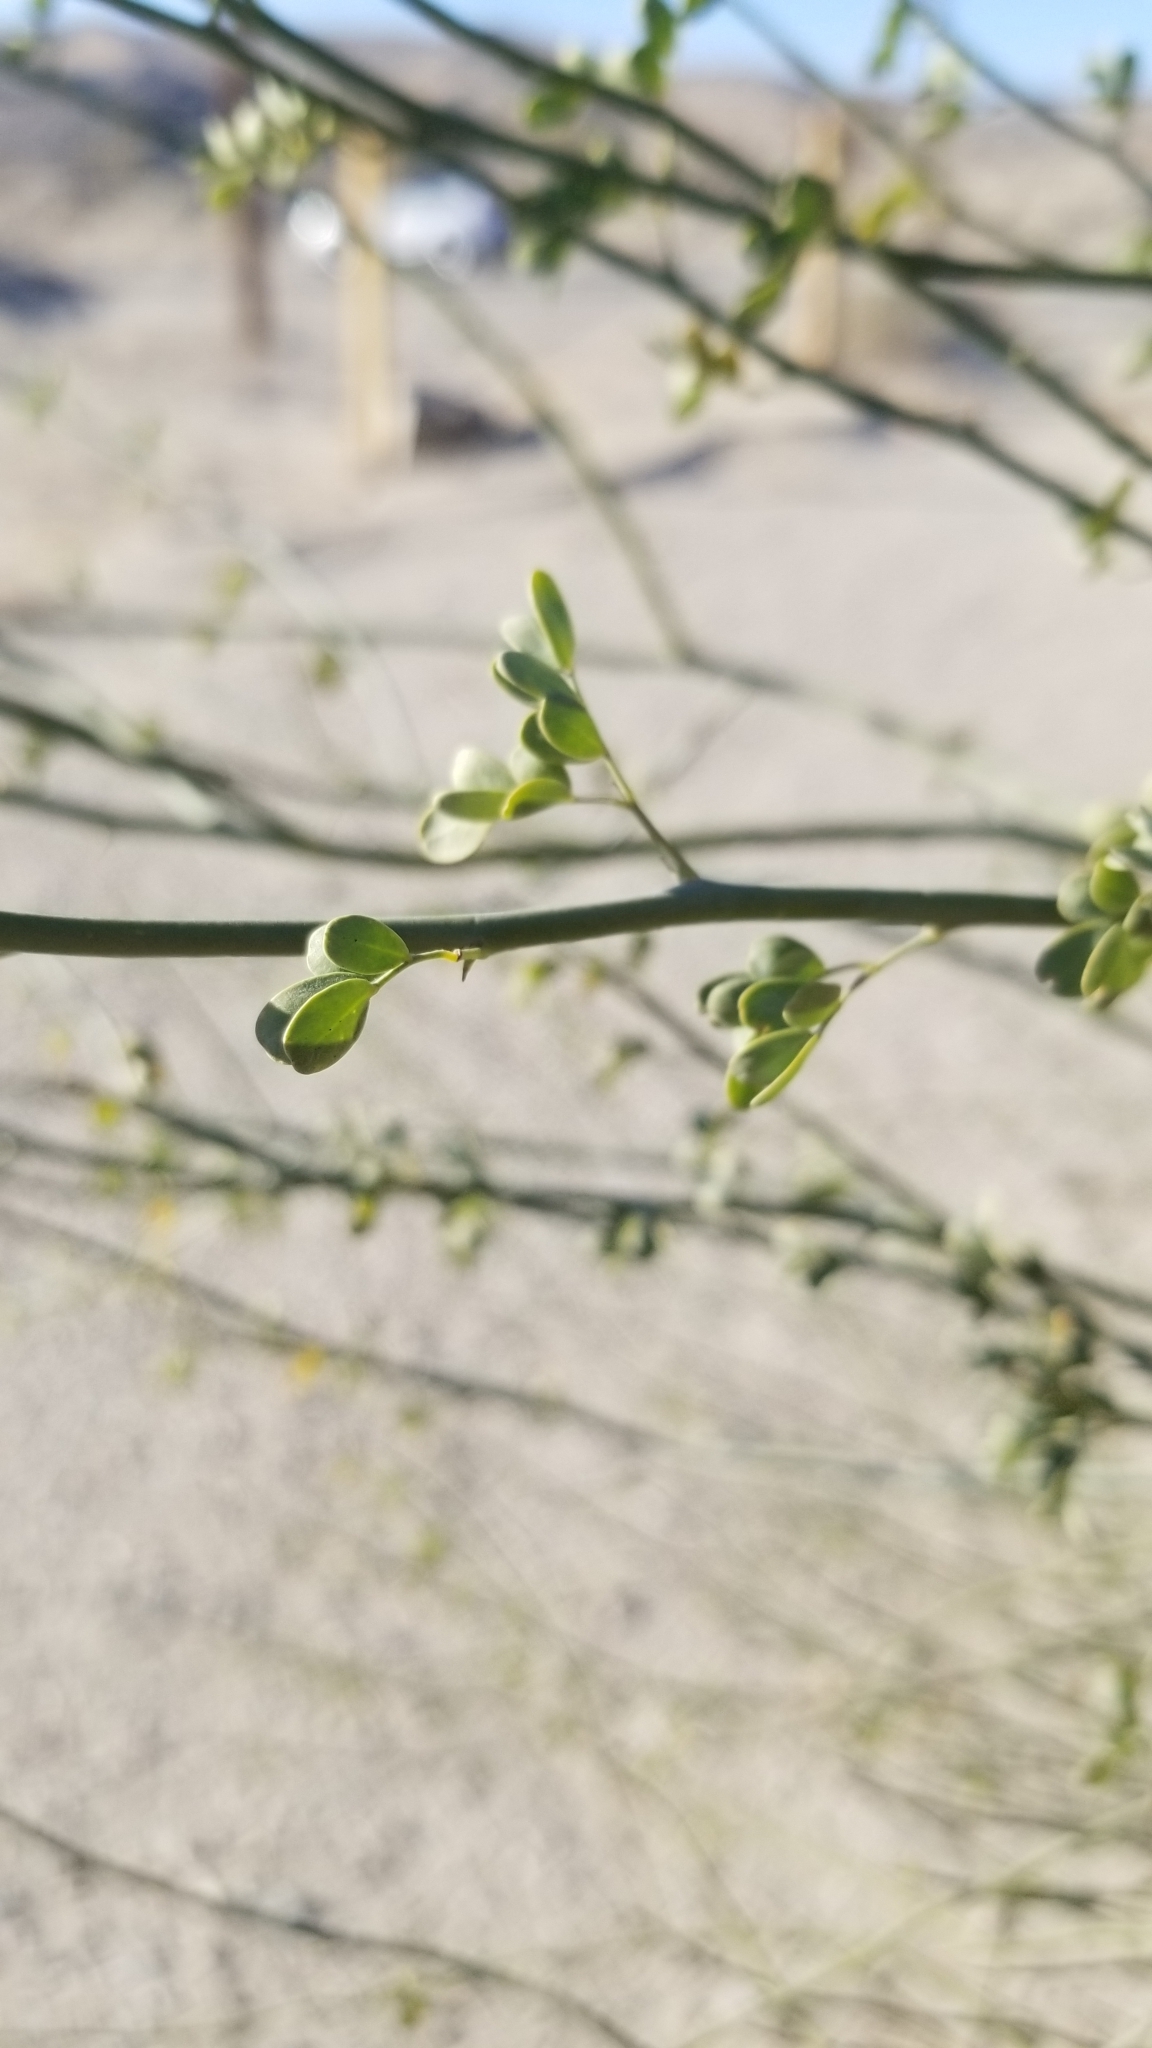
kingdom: Plantae
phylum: Tracheophyta
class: Magnoliopsida
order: Fabales
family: Fabaceae
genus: Parkinsonia
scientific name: Parkinsonia florida
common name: Blue paloverde
